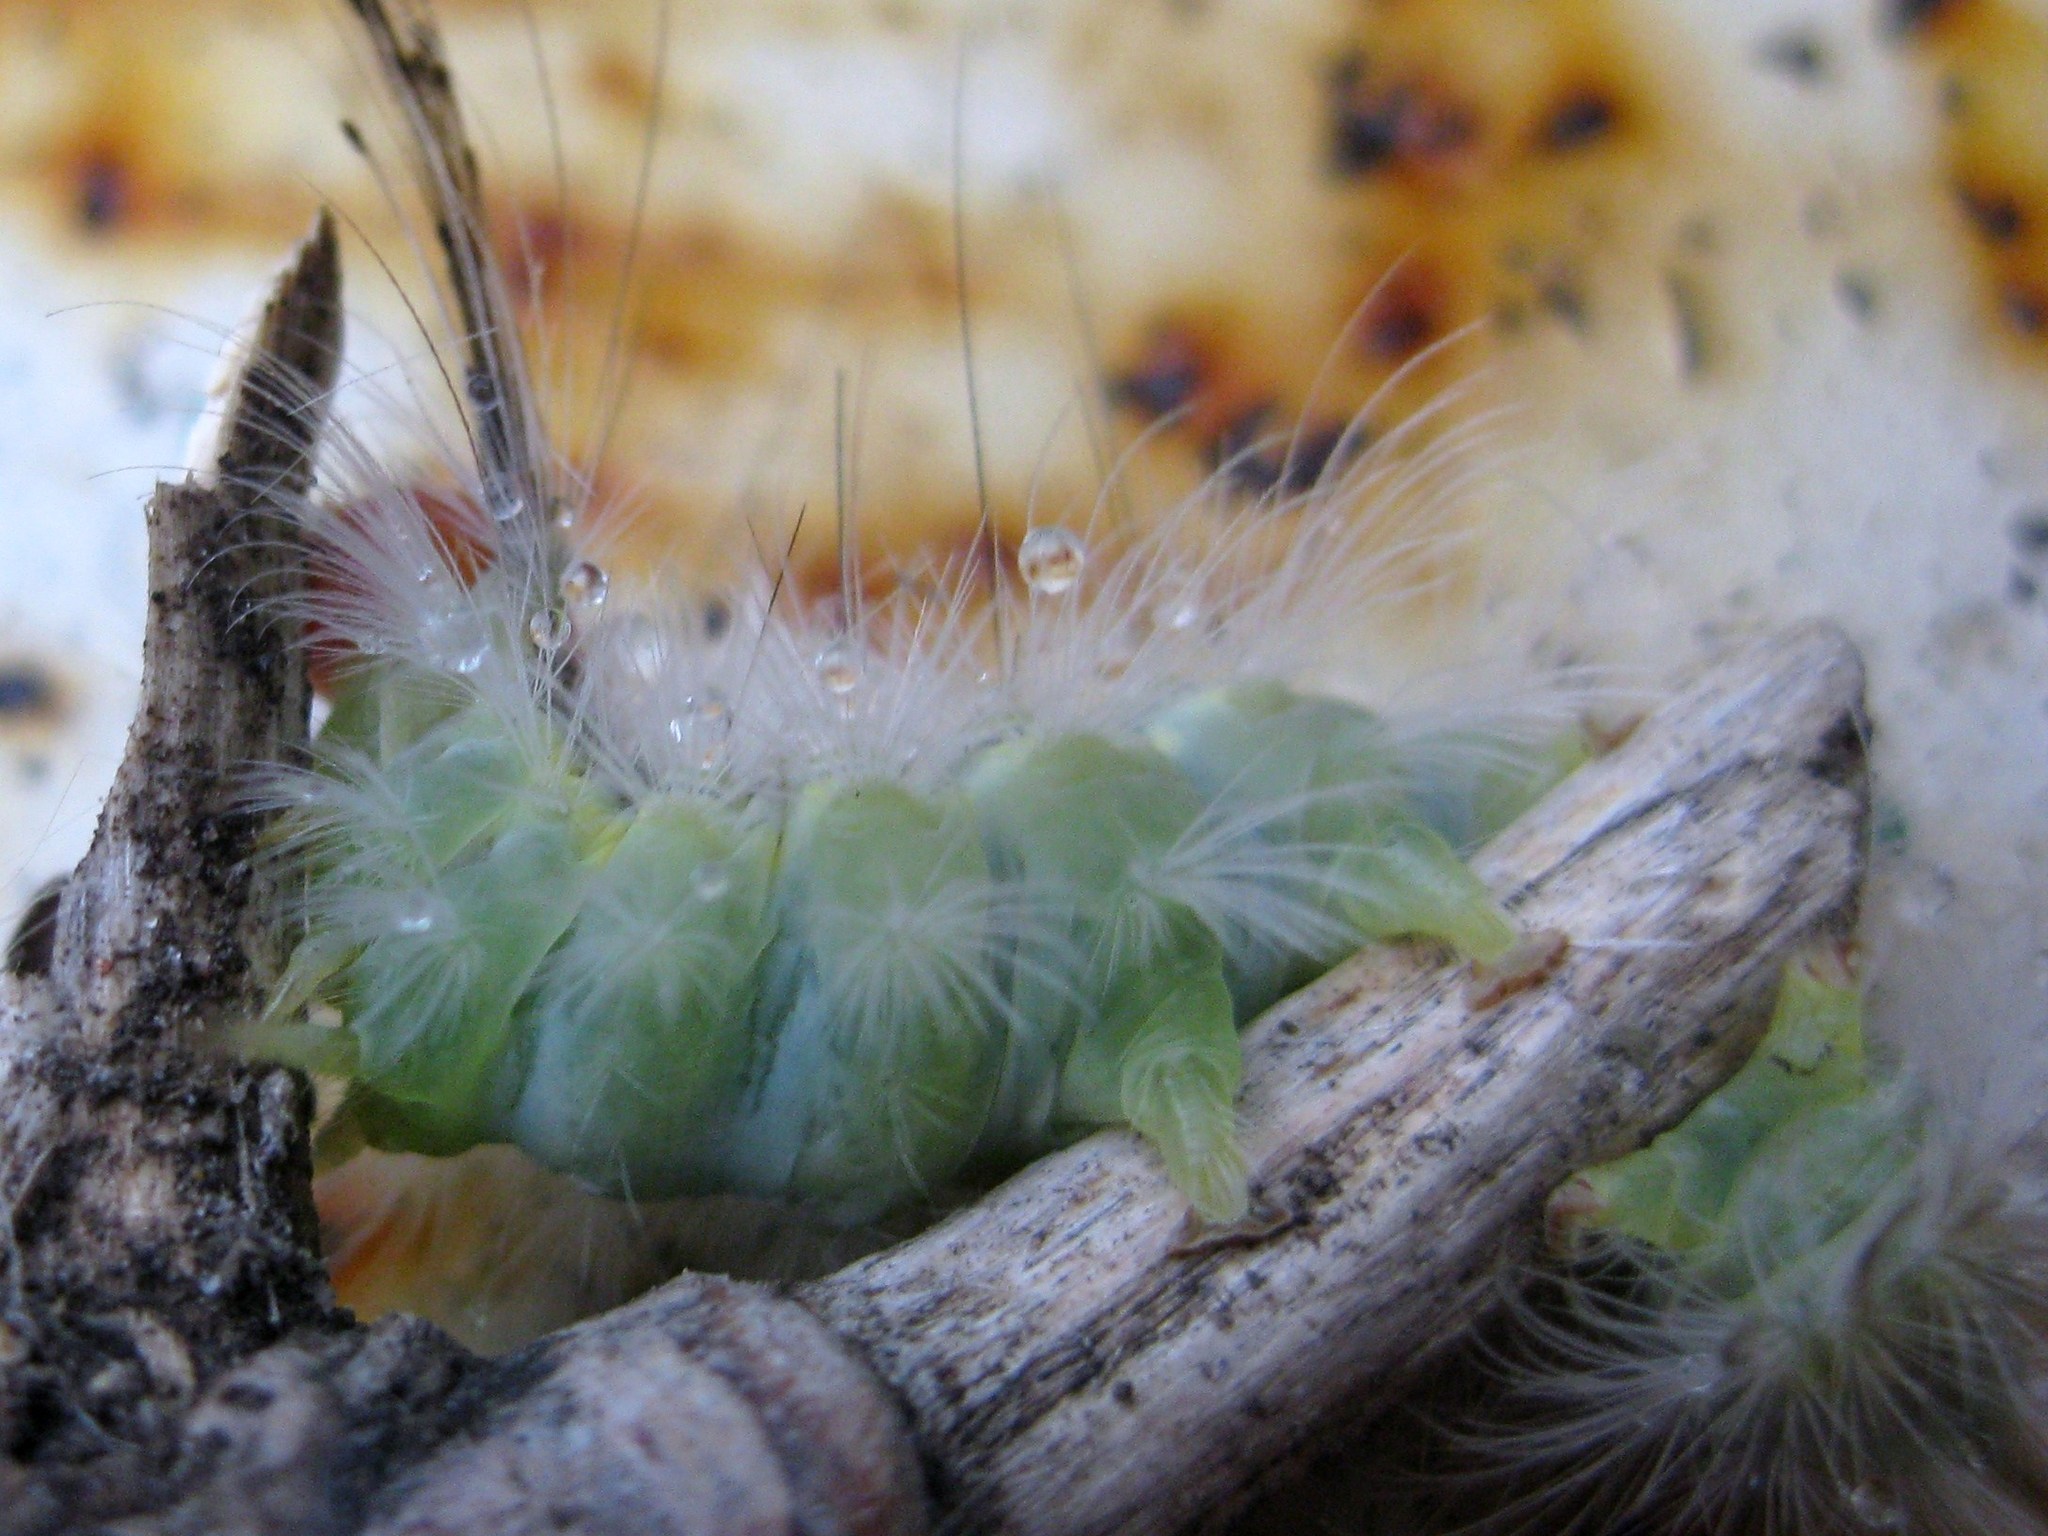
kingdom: Animalia
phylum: Arthropoda
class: Insecta
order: Lepidoptera
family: Erebidae
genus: Orgyia
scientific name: Orgyia leucostigma
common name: White-marked tussock moth
